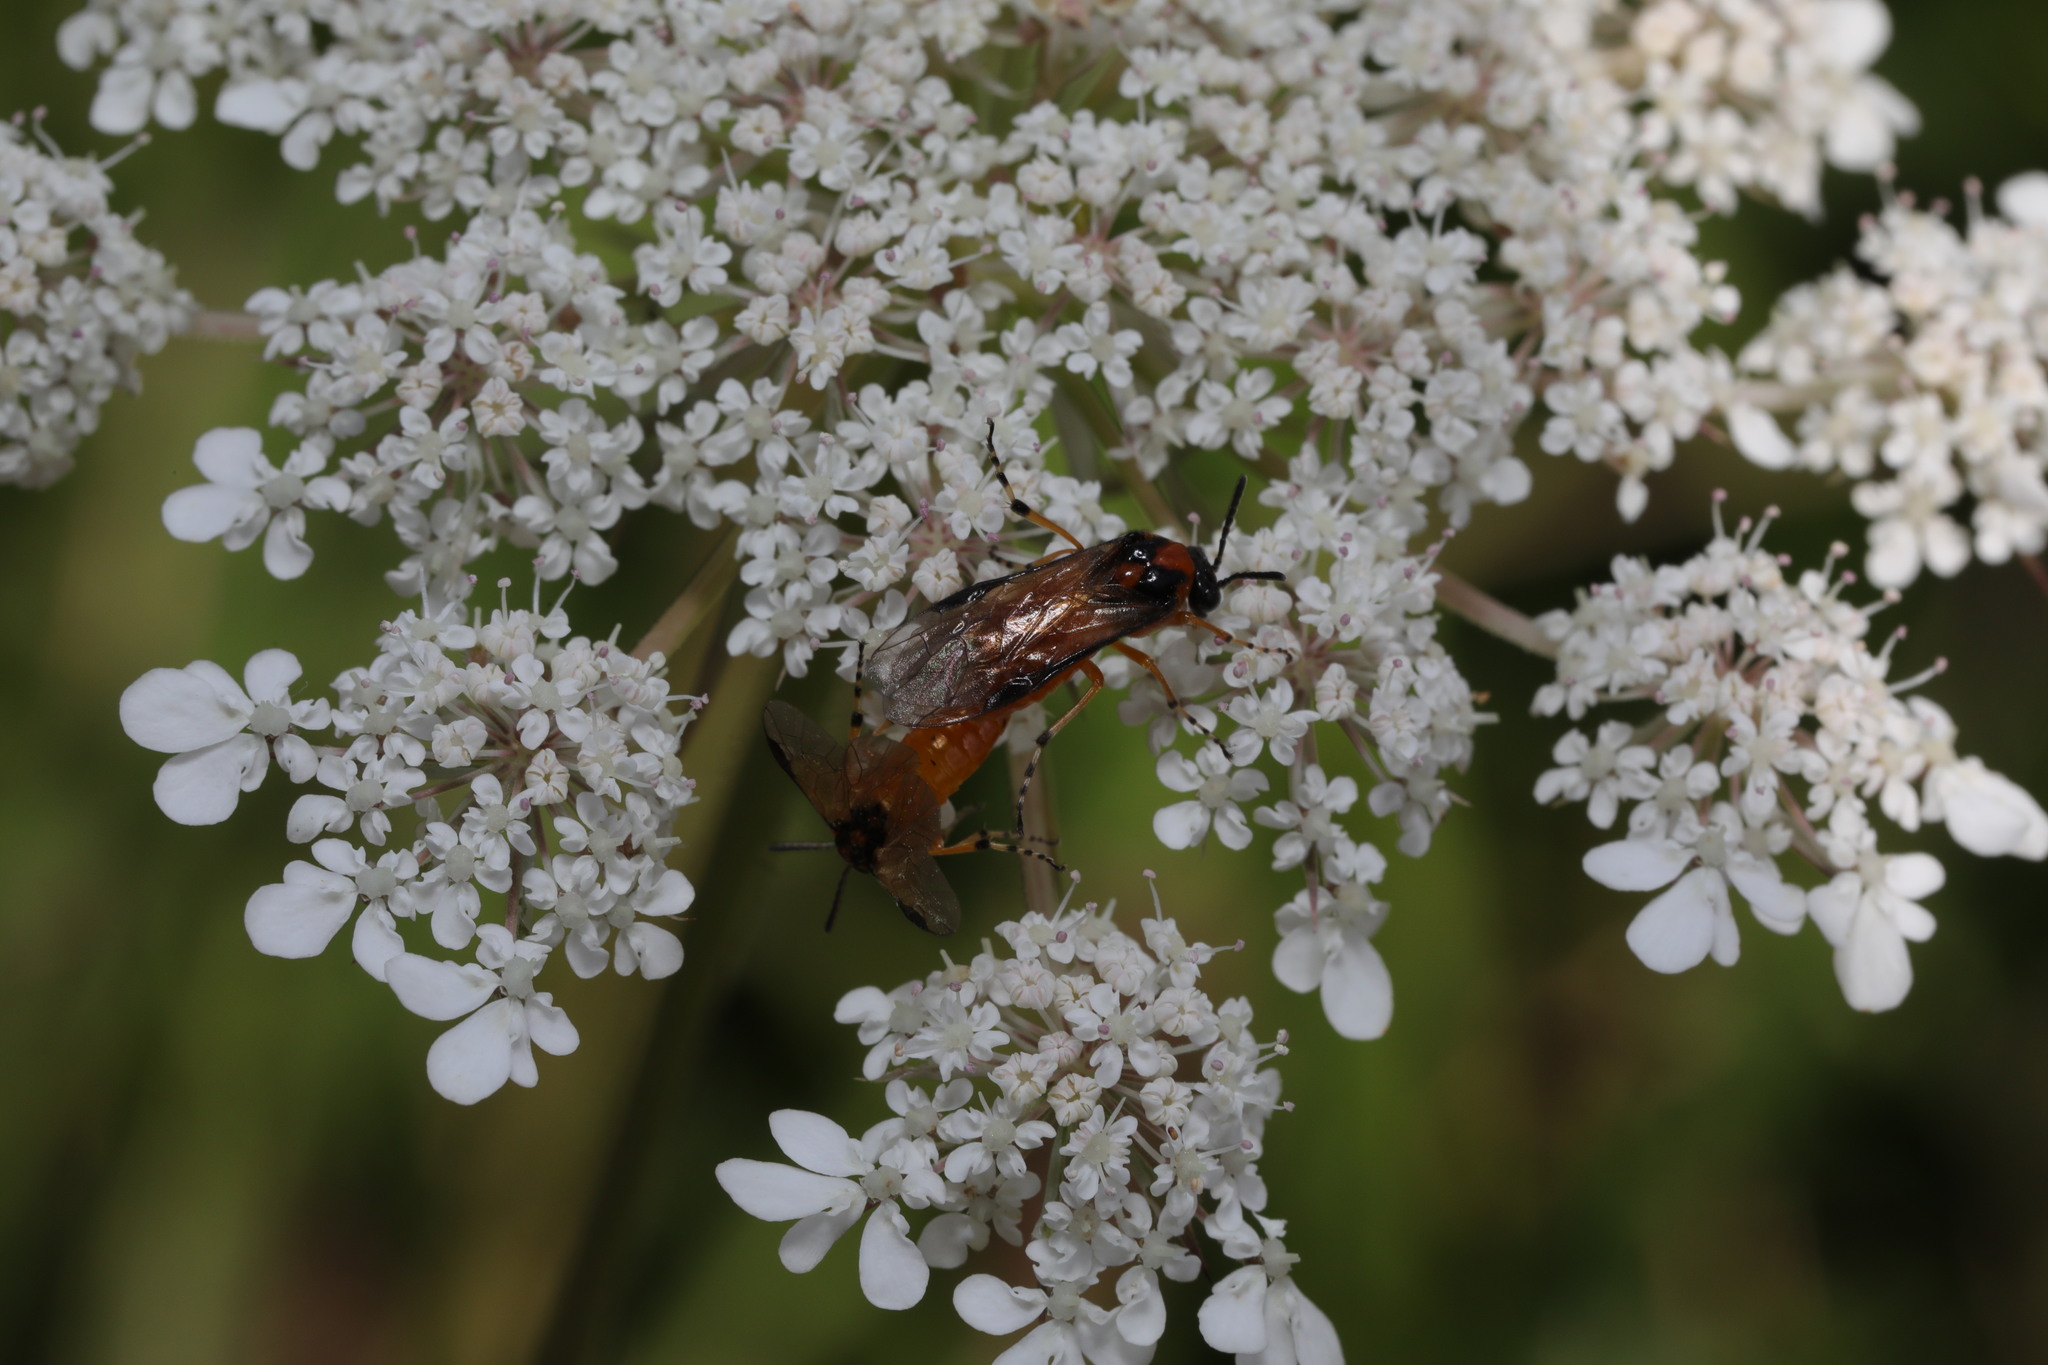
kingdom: Animalia
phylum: Arthropoda
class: Insecta
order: Hymenoptera
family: Tenthredinidae
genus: Athalia
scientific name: Athalia rosae
